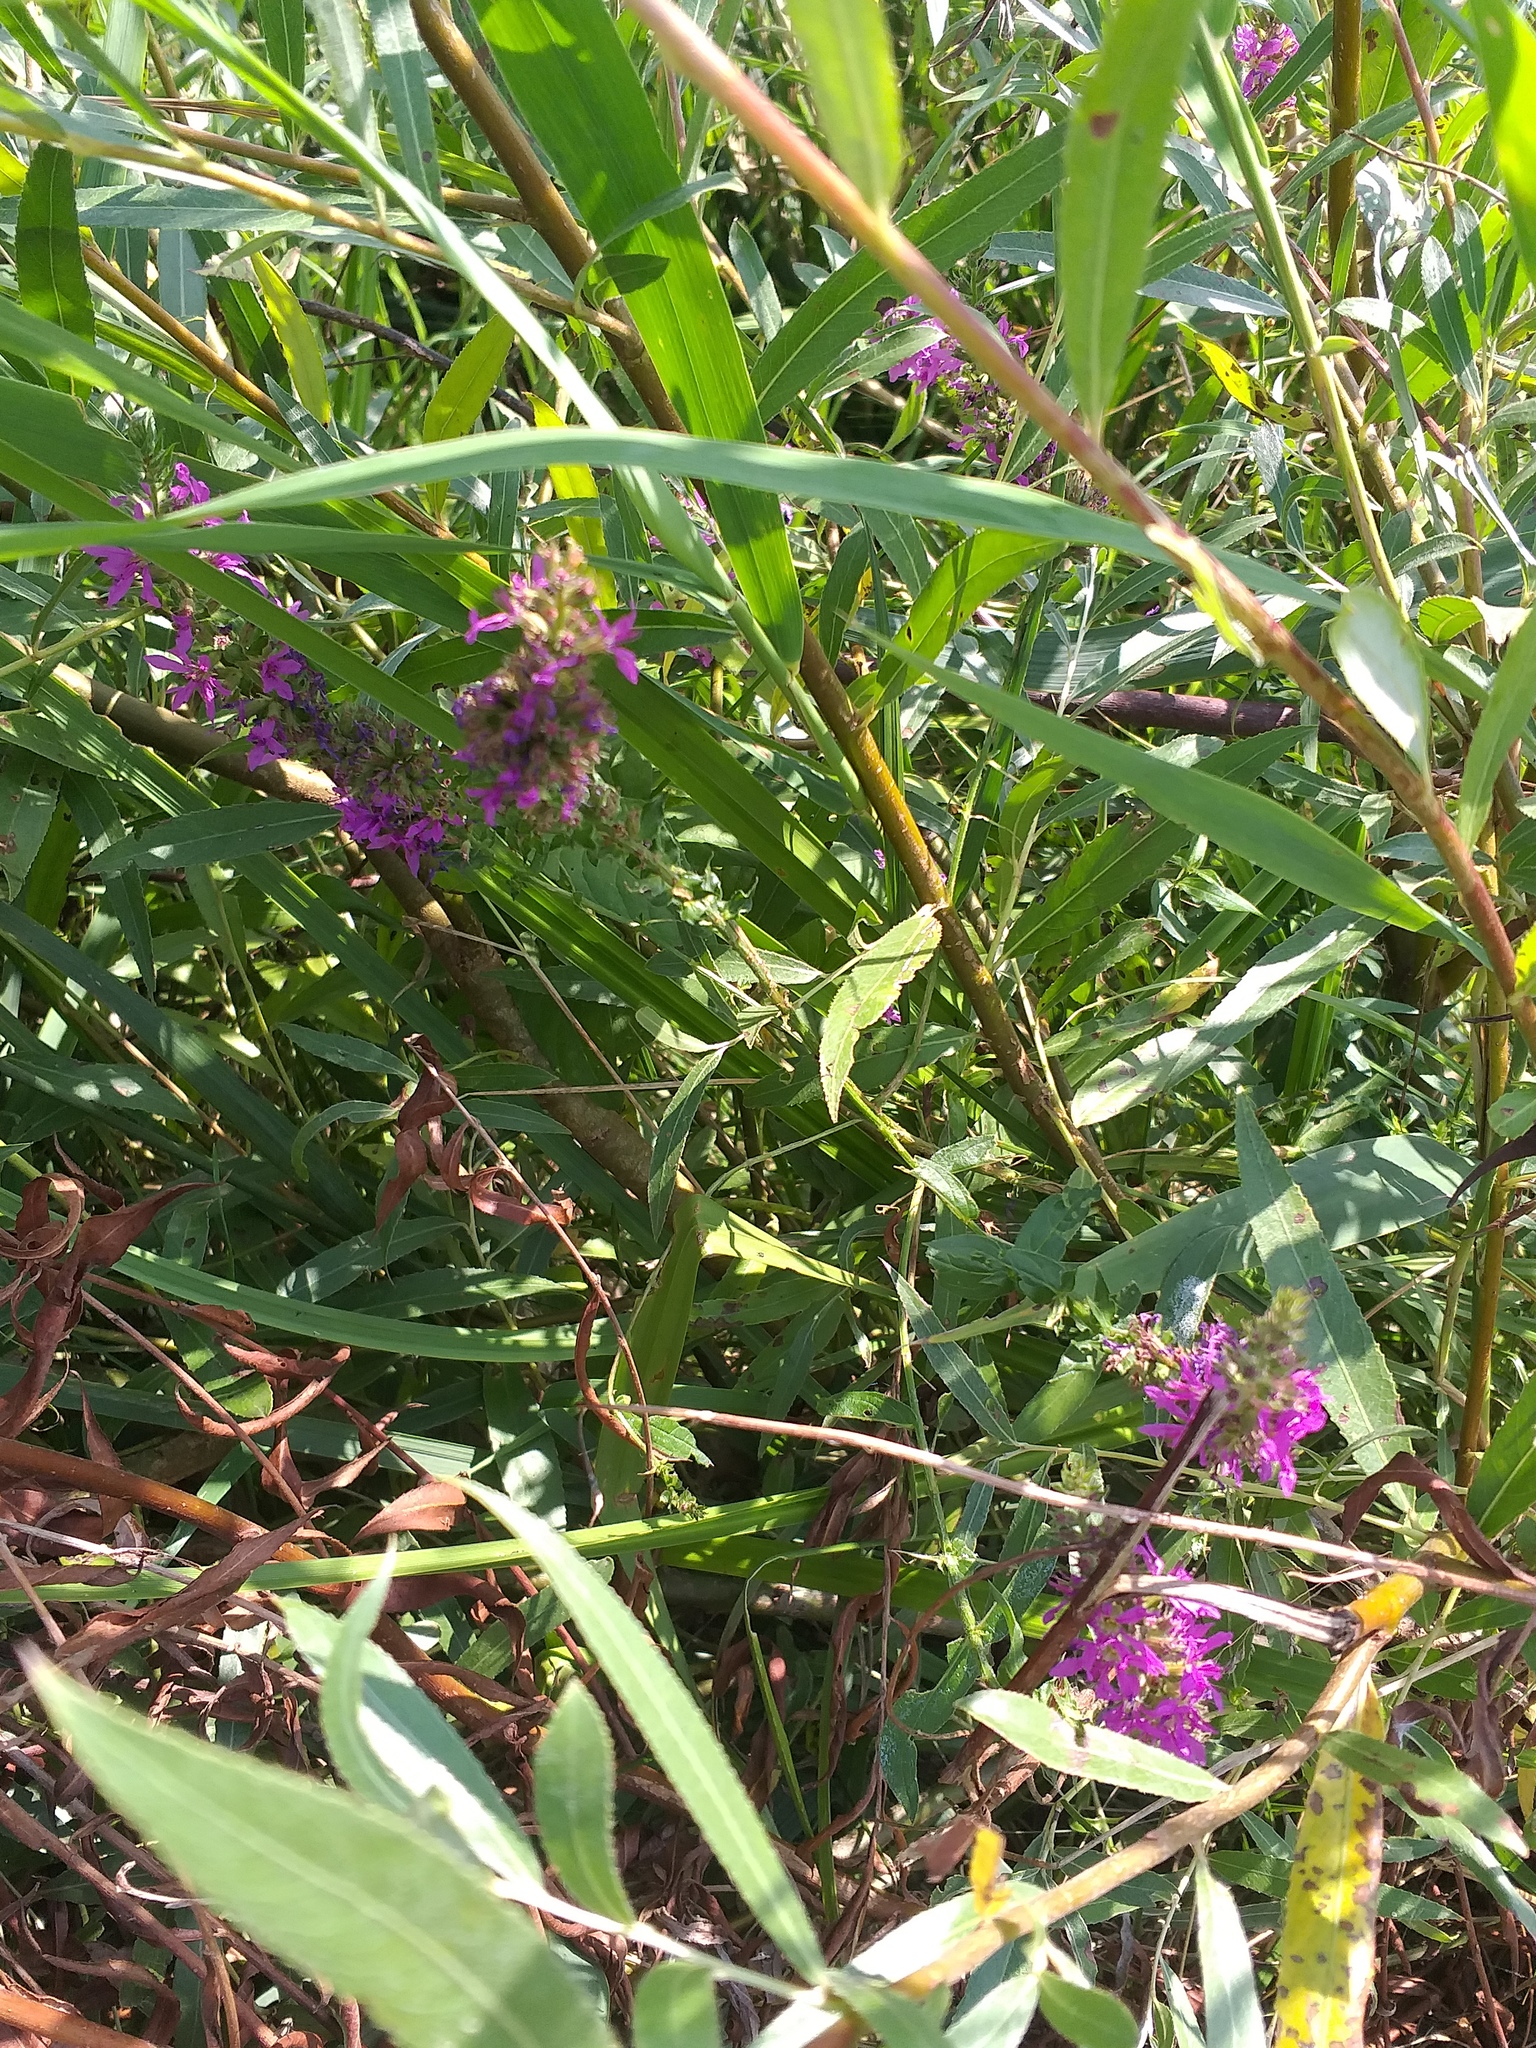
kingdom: Plantae
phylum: Tracheophyta
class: Magnoliopsida
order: Myrtales
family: Lythraceae
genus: Lythrum
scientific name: Lythrum salicaria
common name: Purple loosestrife
